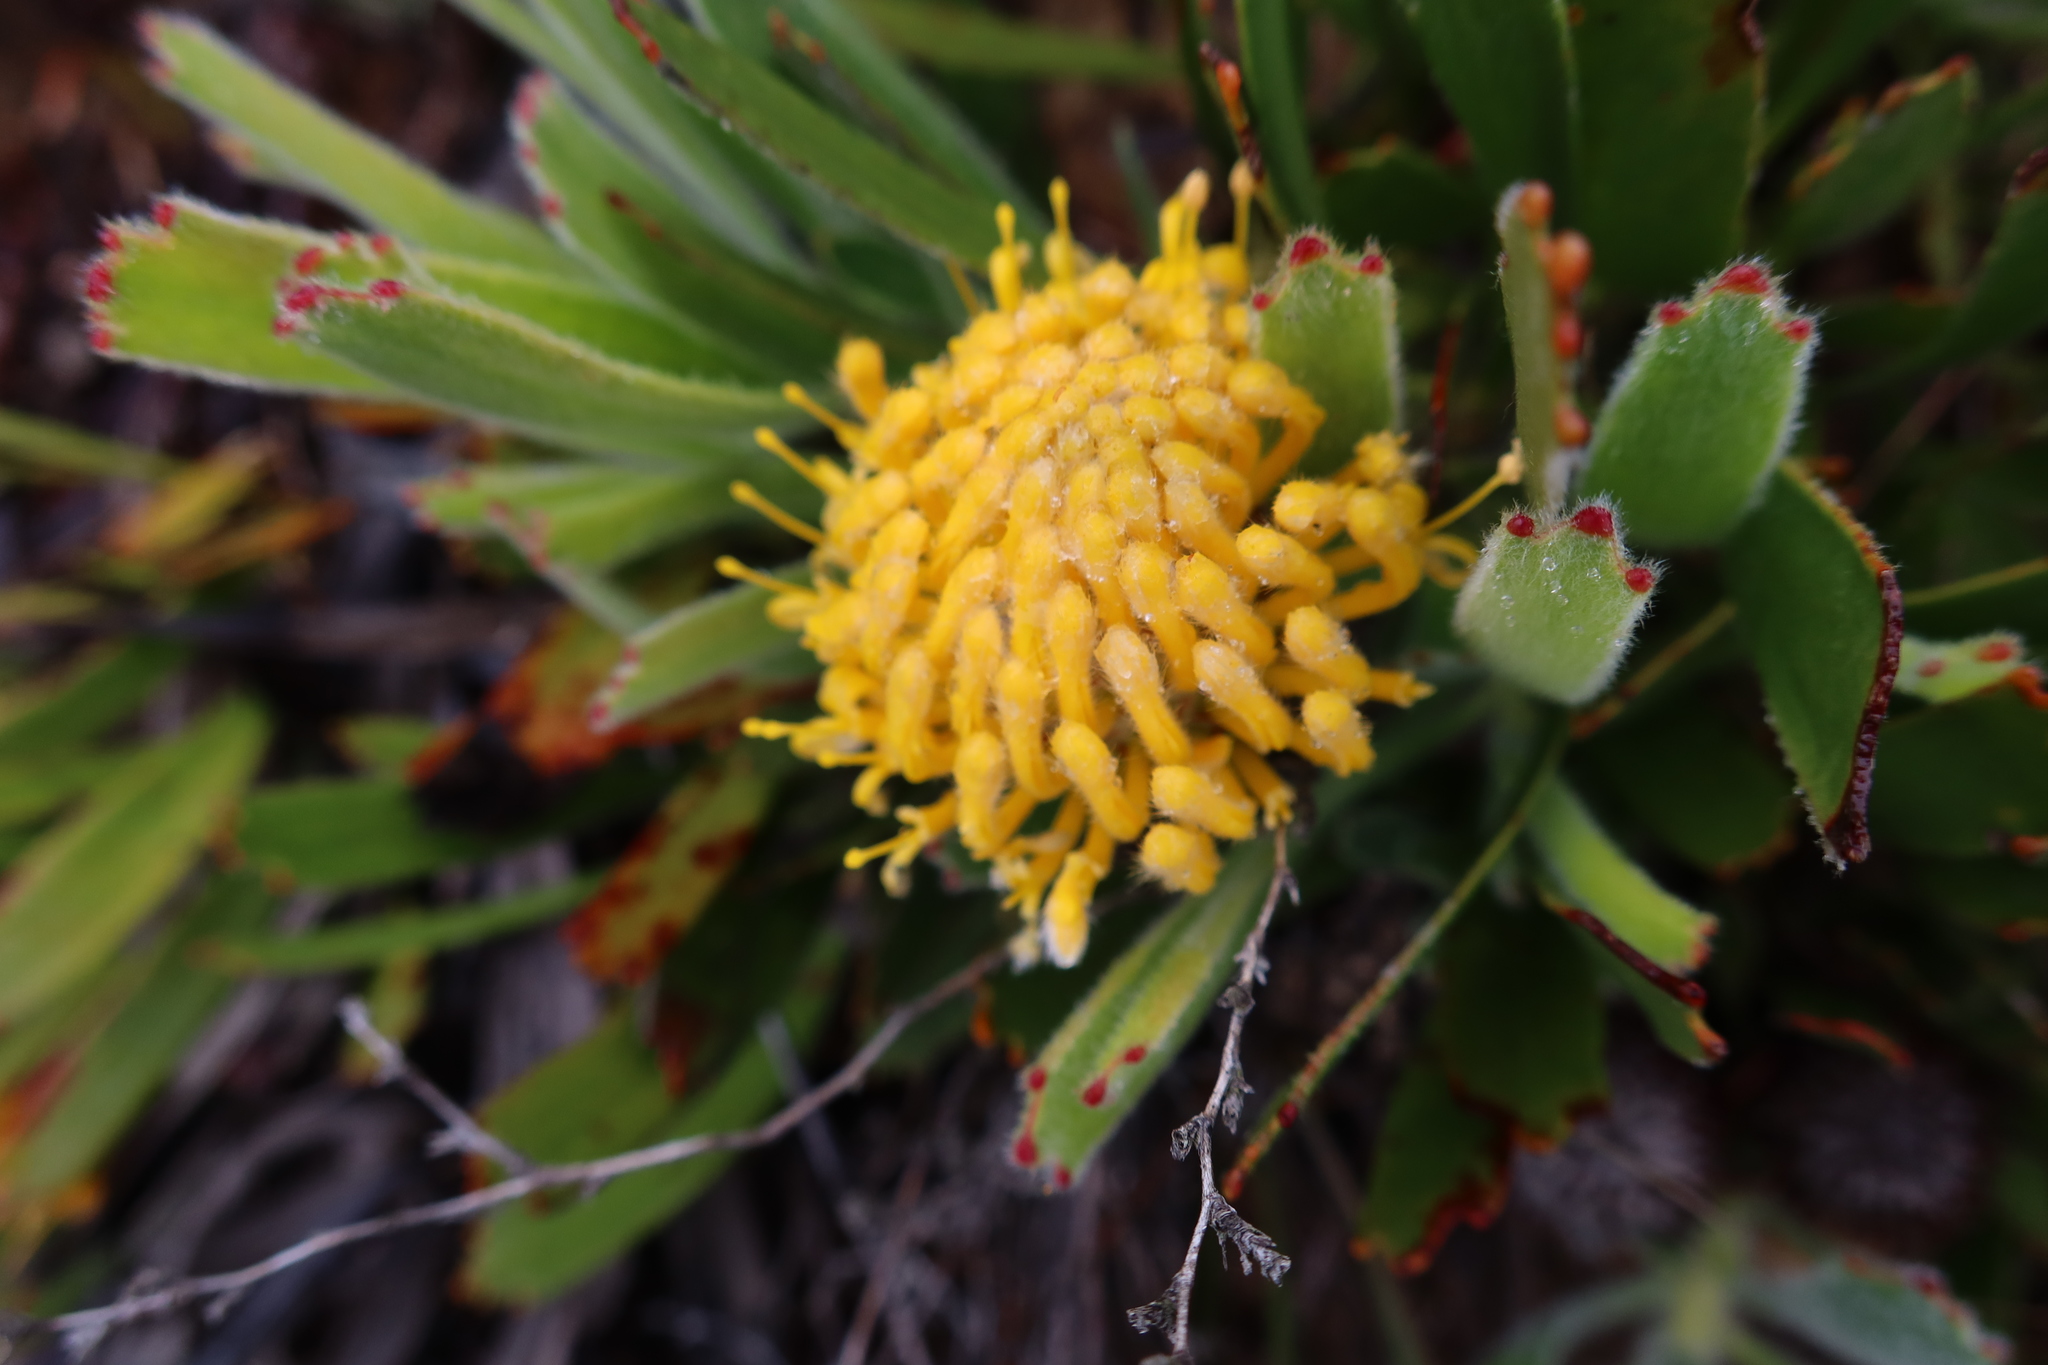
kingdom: Plantae
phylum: Tracheophyta
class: Magnoliopsida
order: Proteales
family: Proteaceae
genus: Leucospermum
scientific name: Leucospermum hypophyllocarpodendron
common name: Snakestem pincushion
